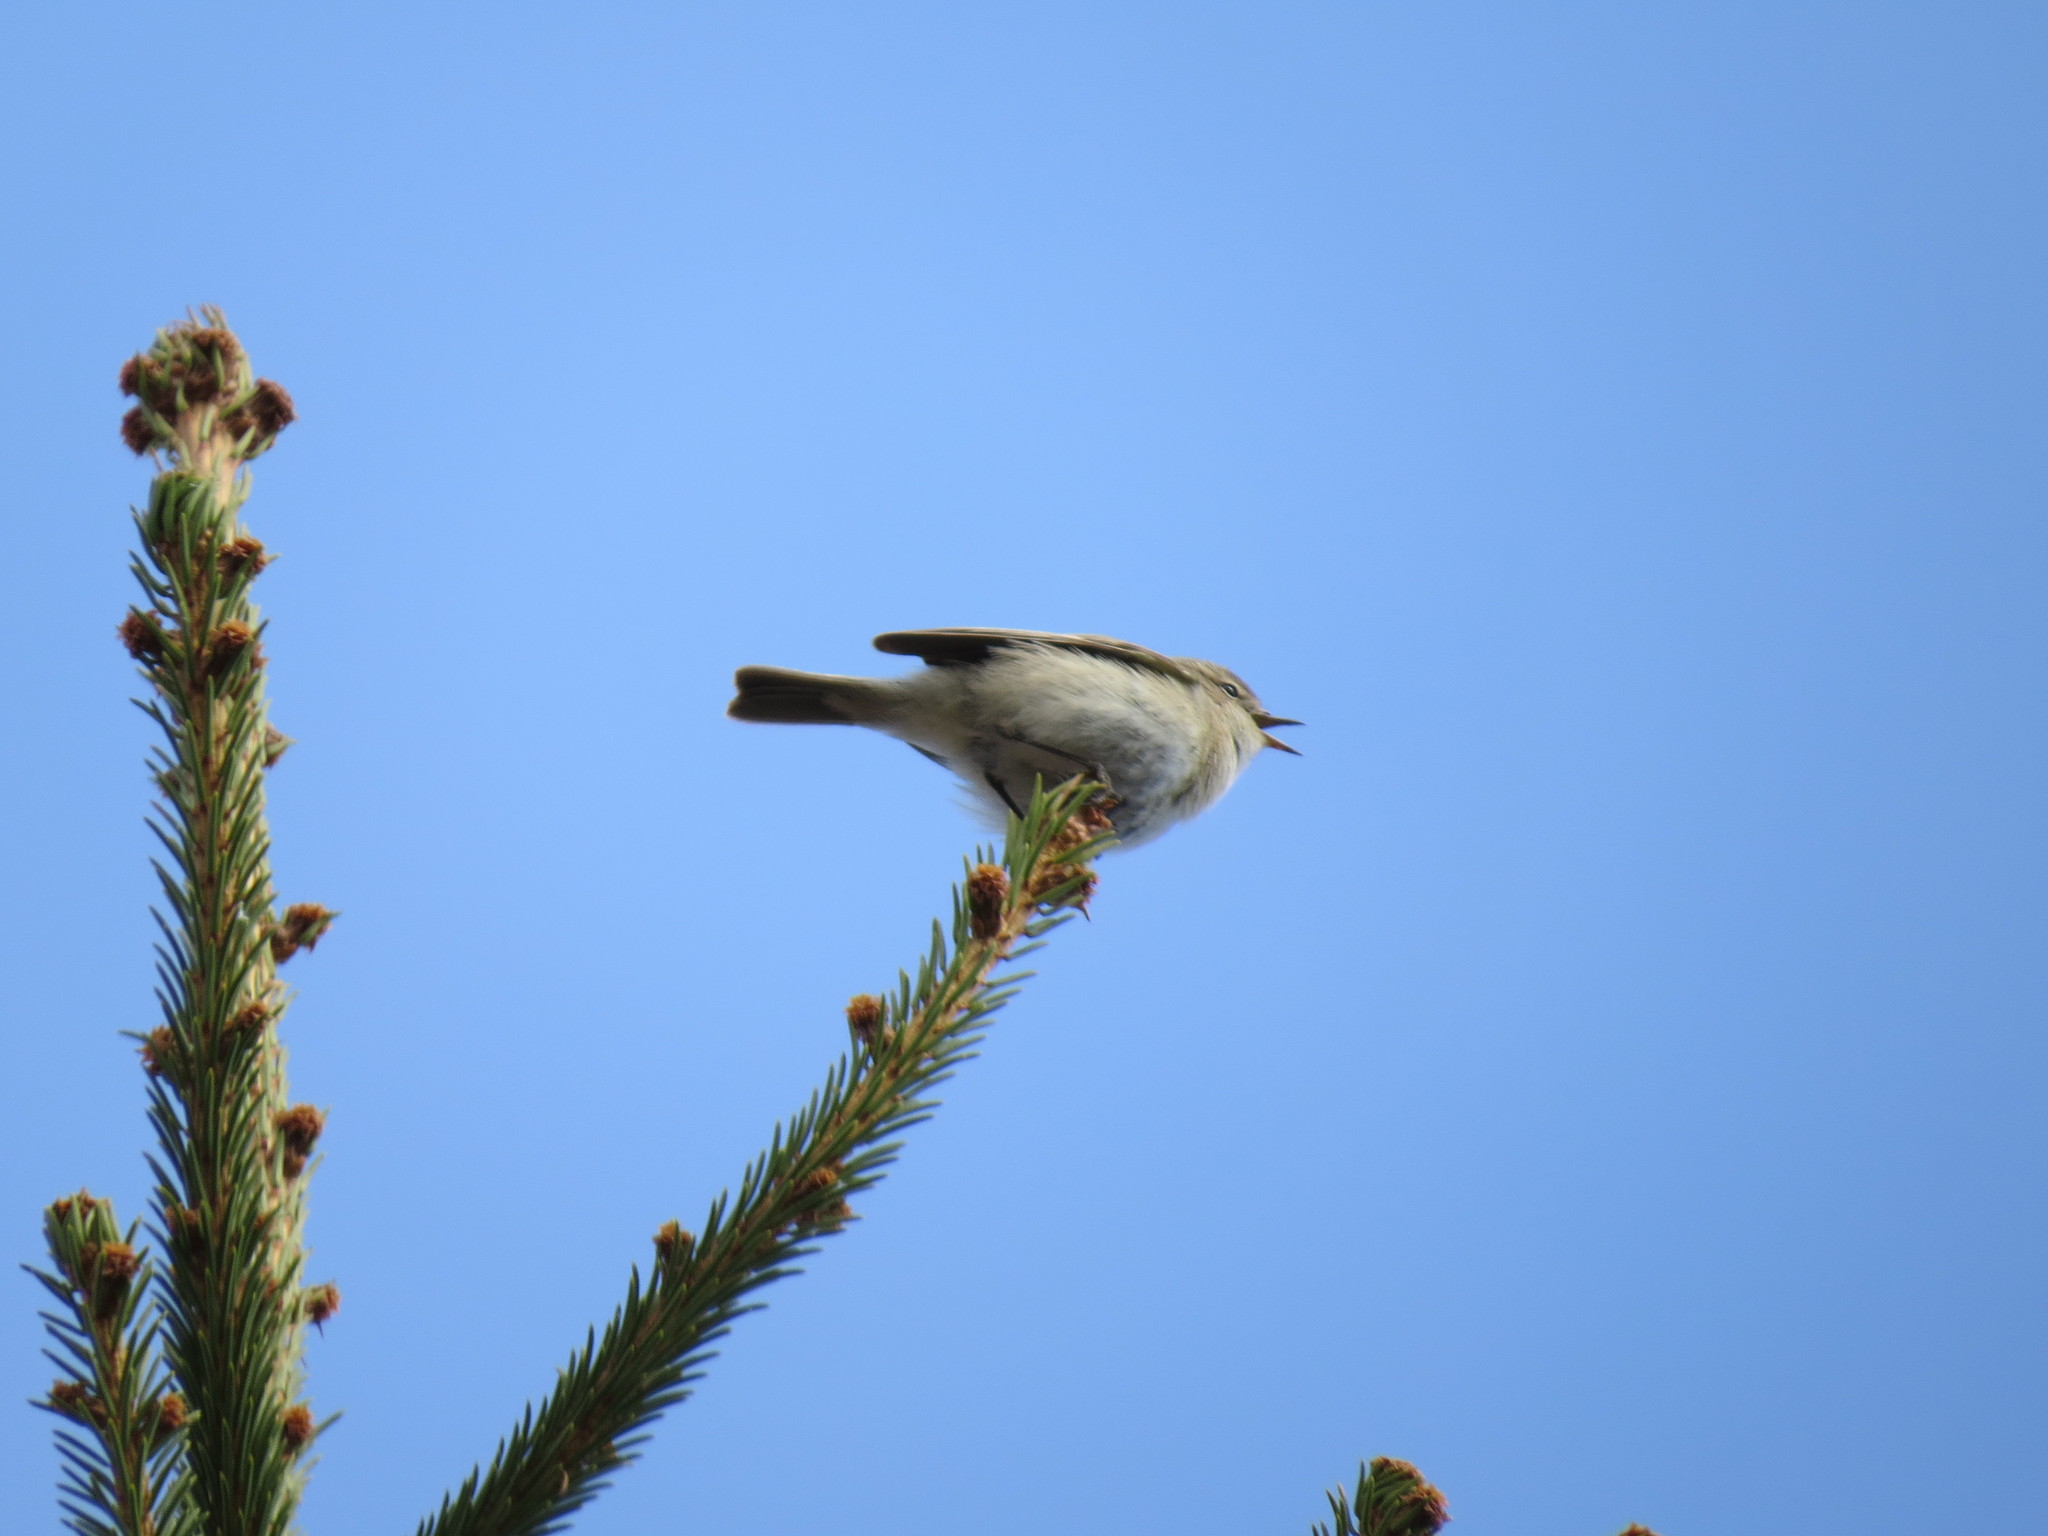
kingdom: Animalia
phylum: Chordata
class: Aves
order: Passeriformes
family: Phylloscopidae
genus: Phylloscopus
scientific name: Phylloscopus collybita
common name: Common chiffchaff
